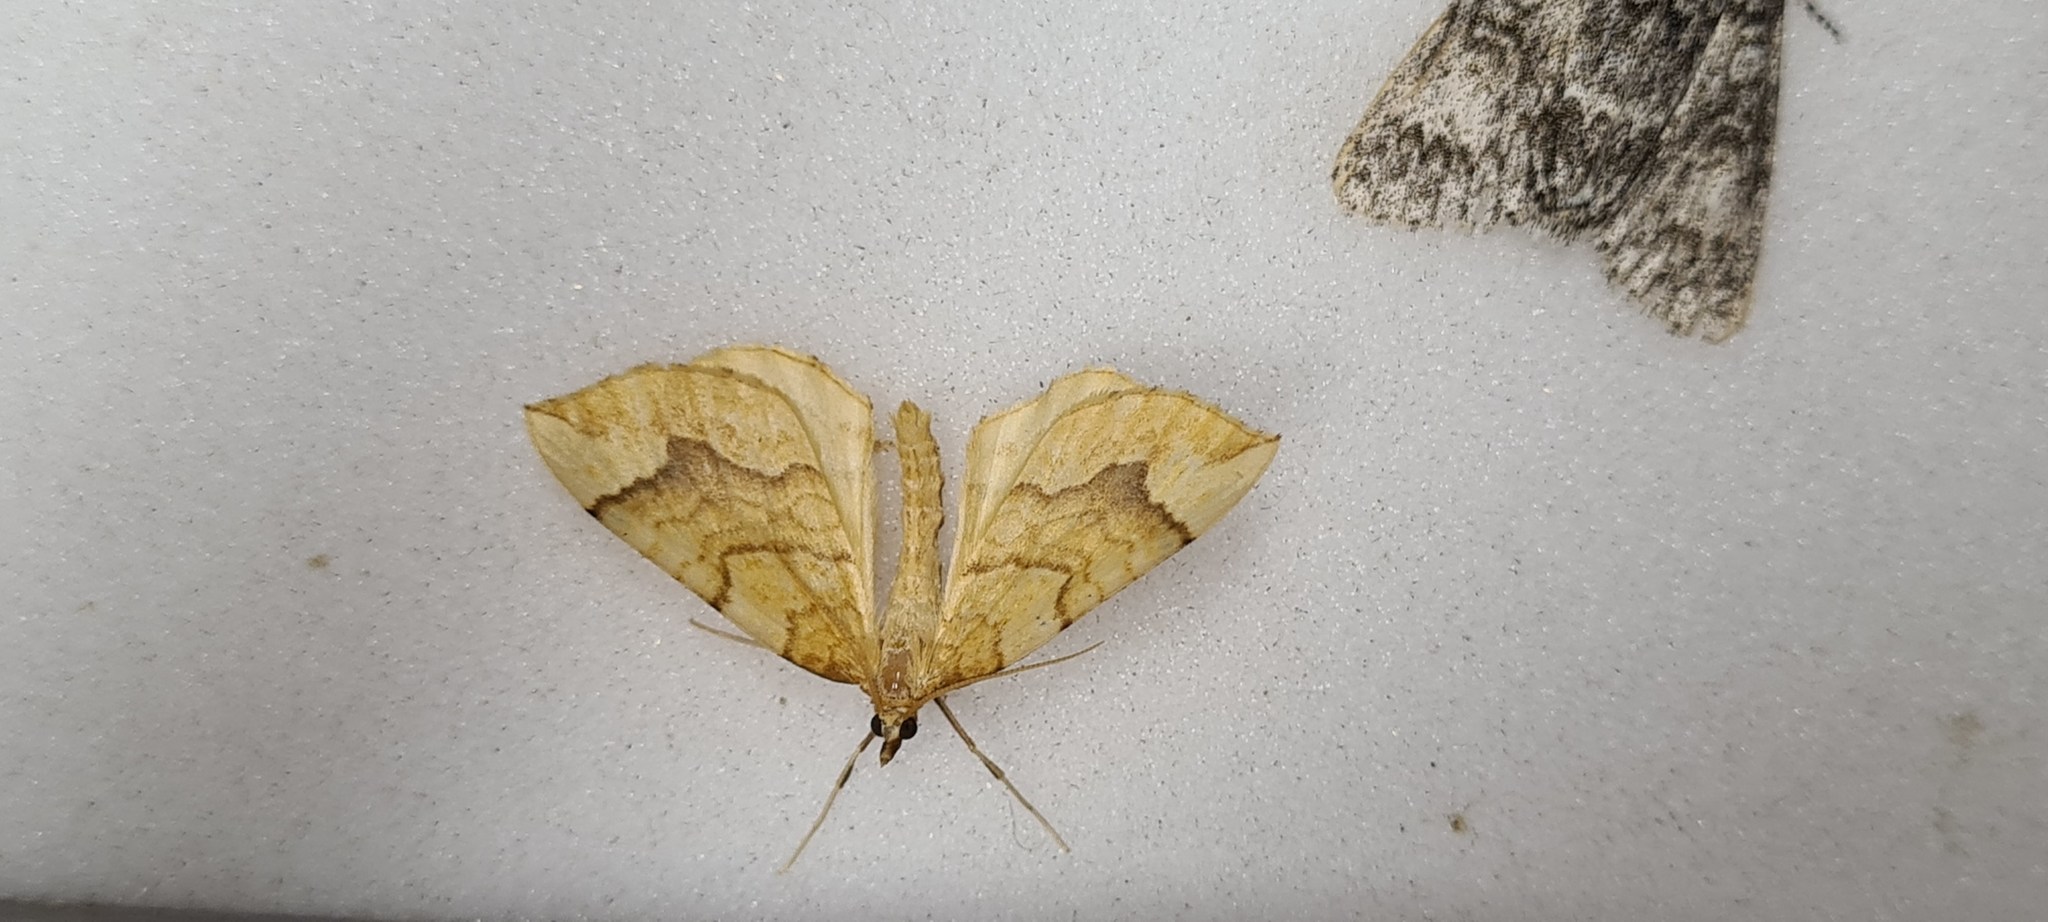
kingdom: Animalia
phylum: Arthropoda
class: Insecta
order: Lepidoptera
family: Geometridae
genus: Eulithis
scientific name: Eulithis mellinata
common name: Spinach
